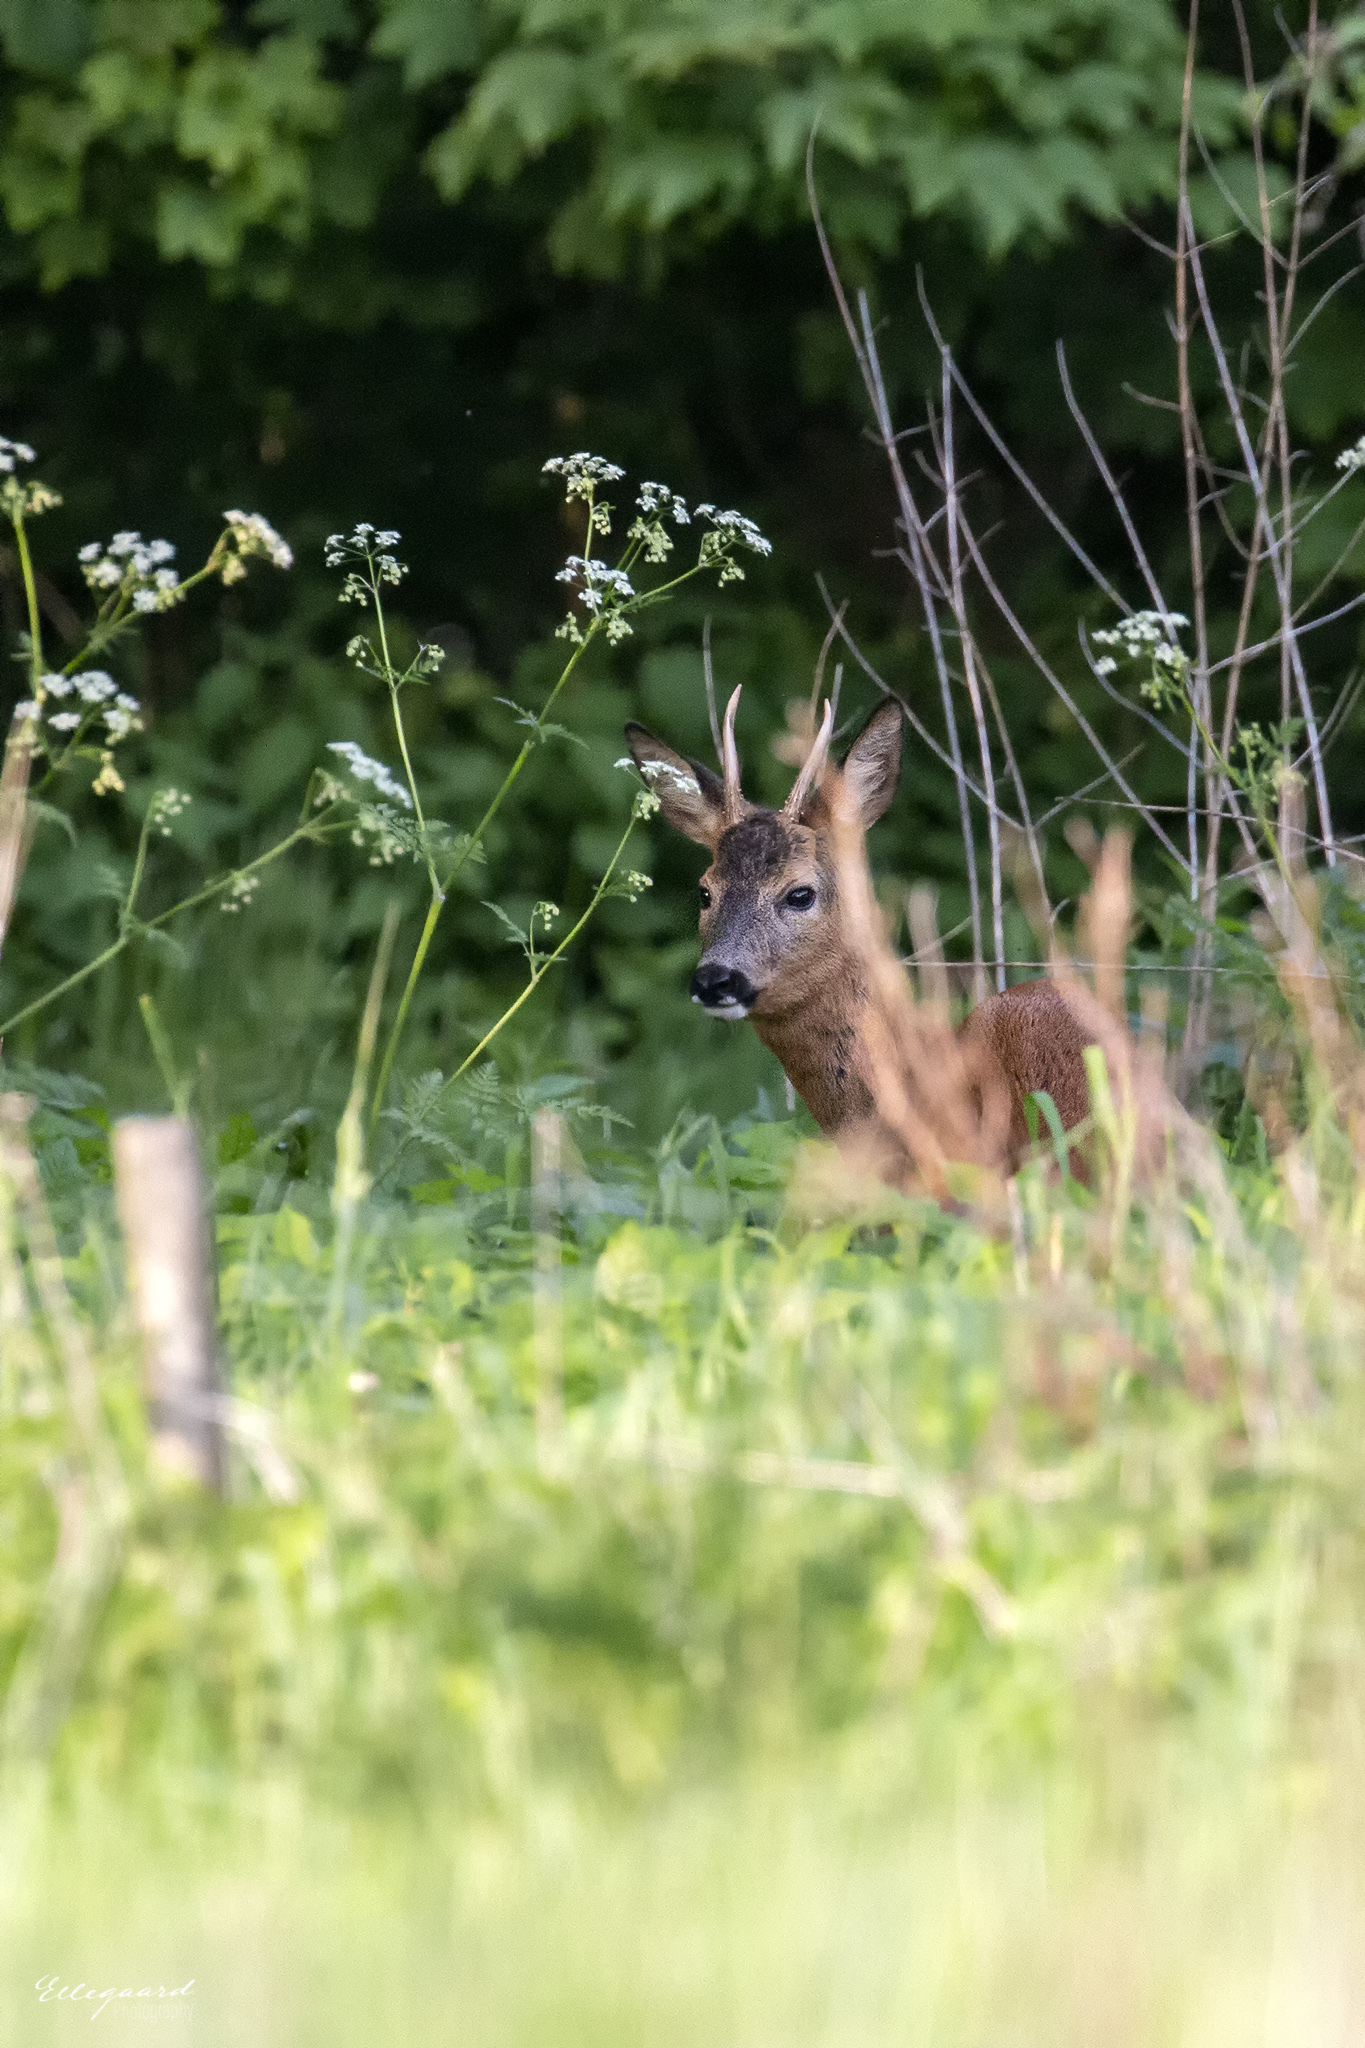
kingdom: Animalia
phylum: Chordata
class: Mammalia
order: Artiodactyla
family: Cervidae
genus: Capreolus
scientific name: Capreolus capreolus
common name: Western roe deer
